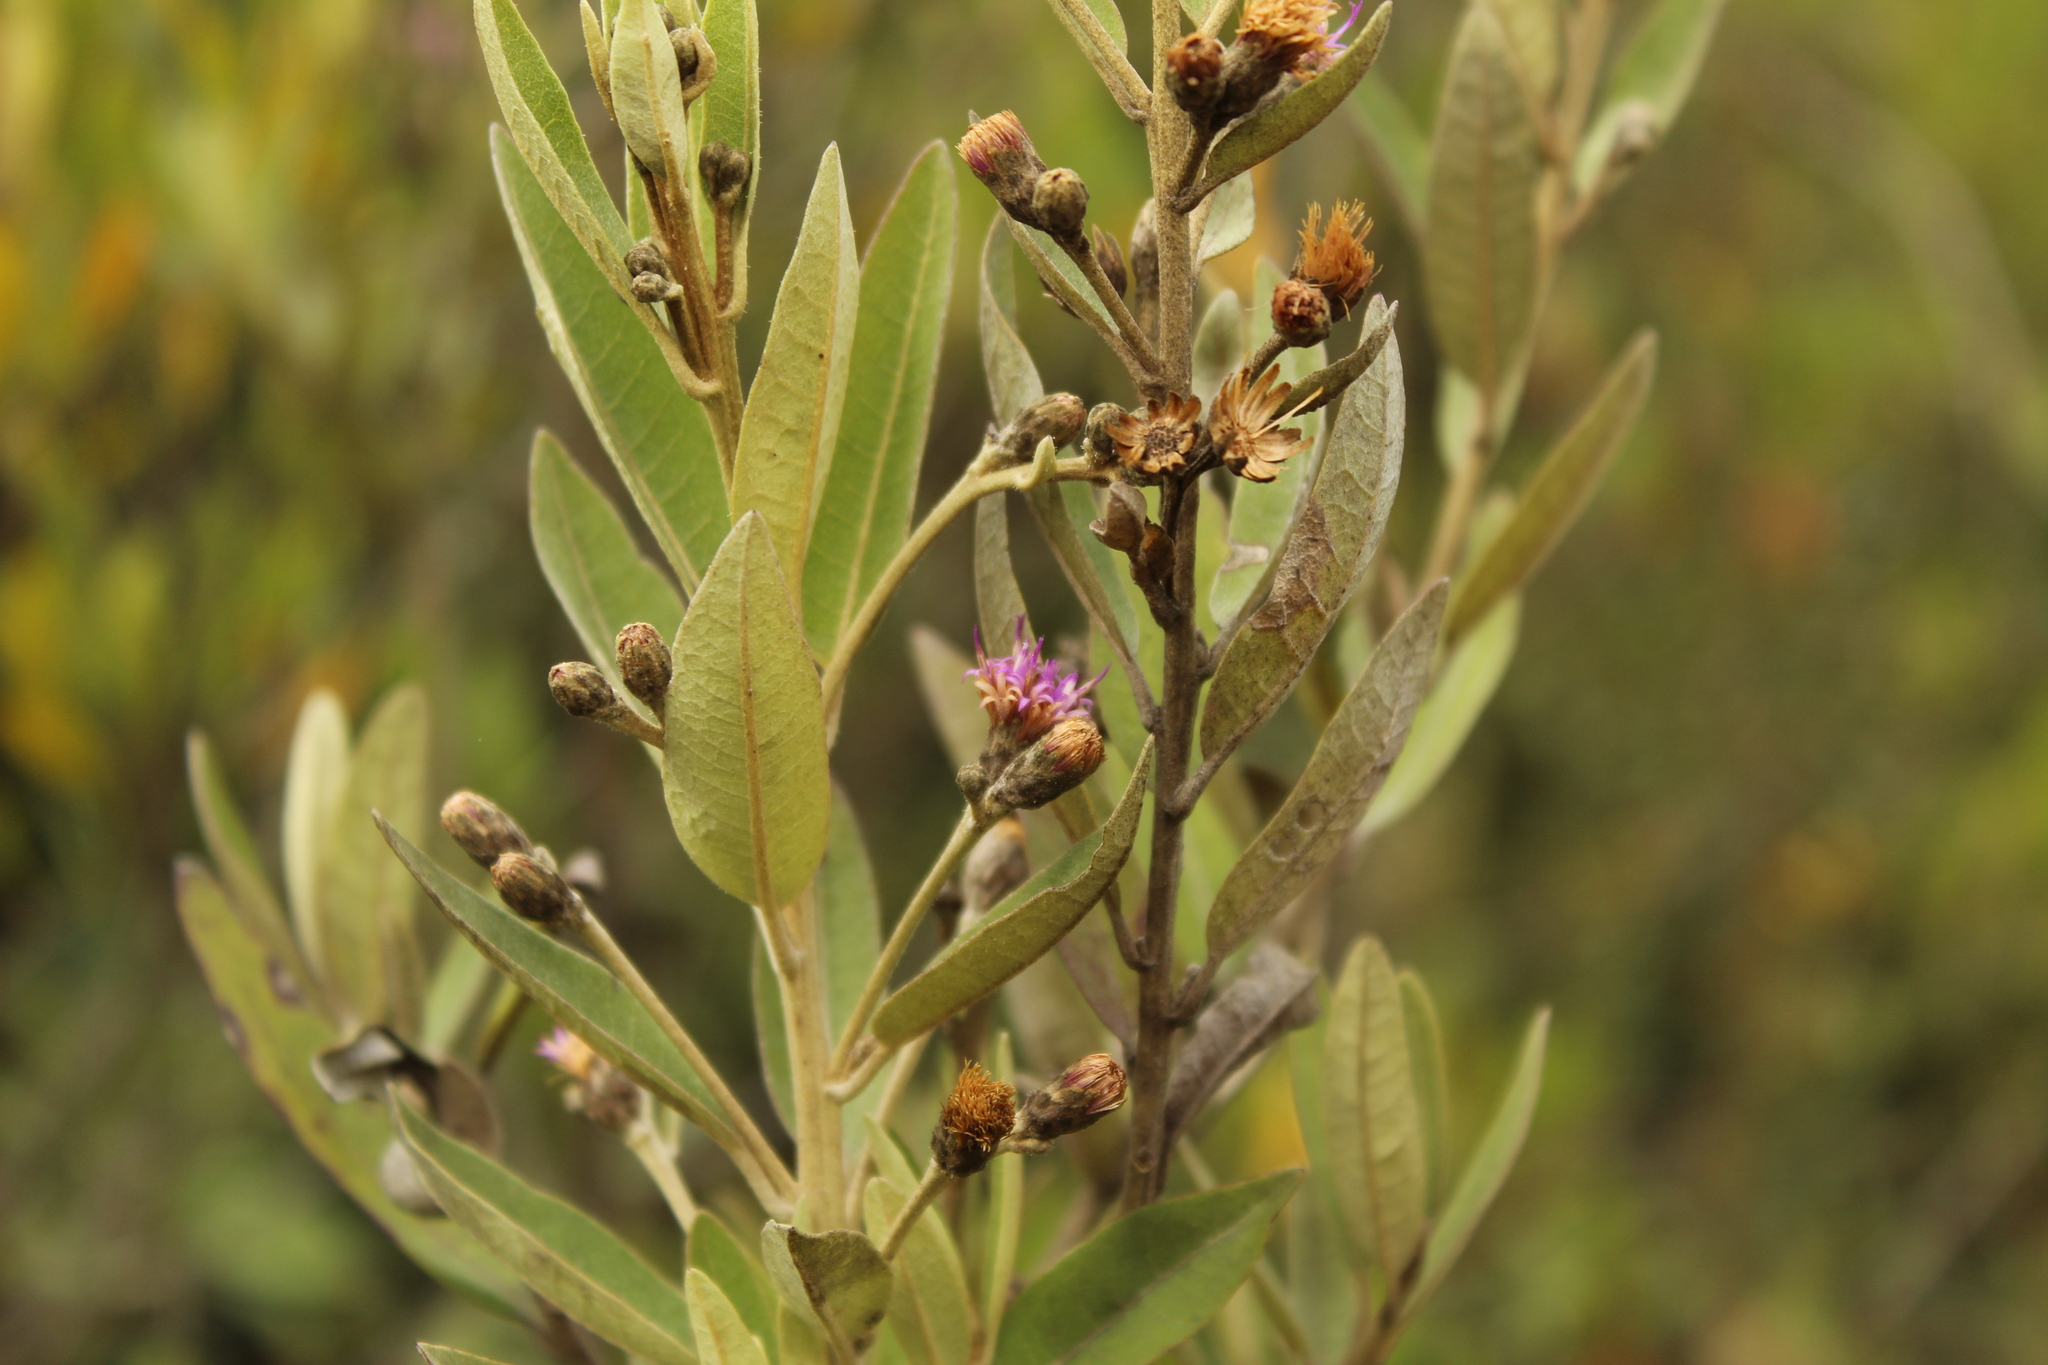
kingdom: Plantae
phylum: Tracheophyta
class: Magnoliopsida
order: Asterales
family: Asteraceae
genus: Lepidaploa
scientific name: Lepidaploa karstenii
